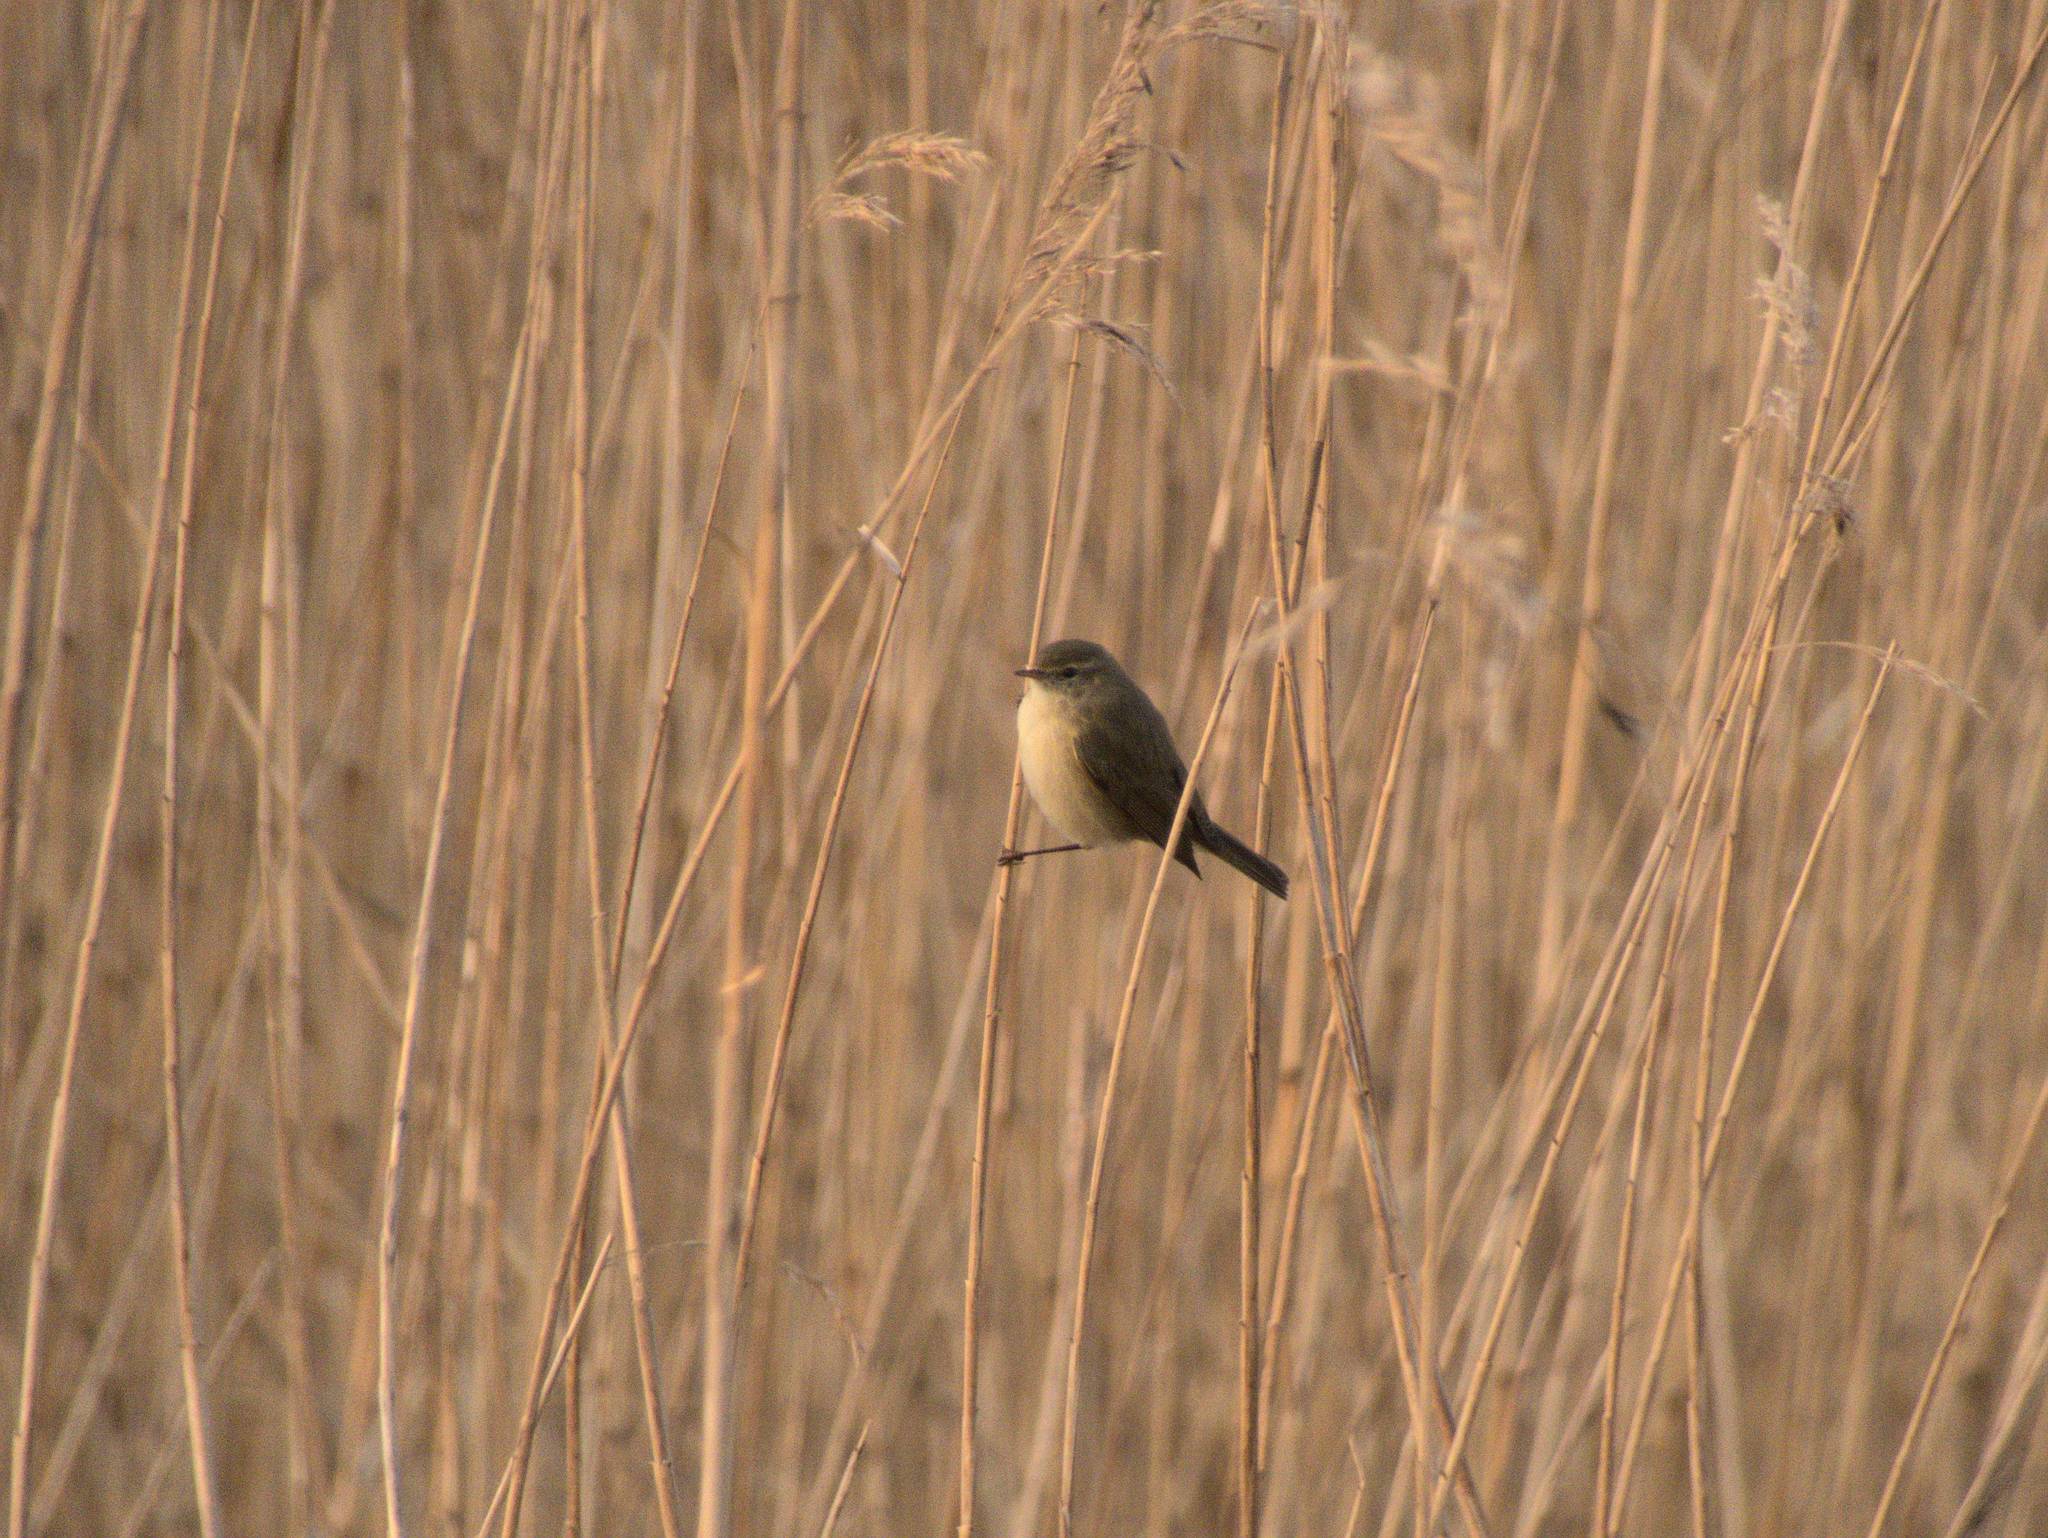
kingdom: Animalia
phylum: Chordata
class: Aves
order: Passeriformes
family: Phylloscopidae
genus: Phylloscopus
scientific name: Phylloscopus collybita
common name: Common chiffchaff
